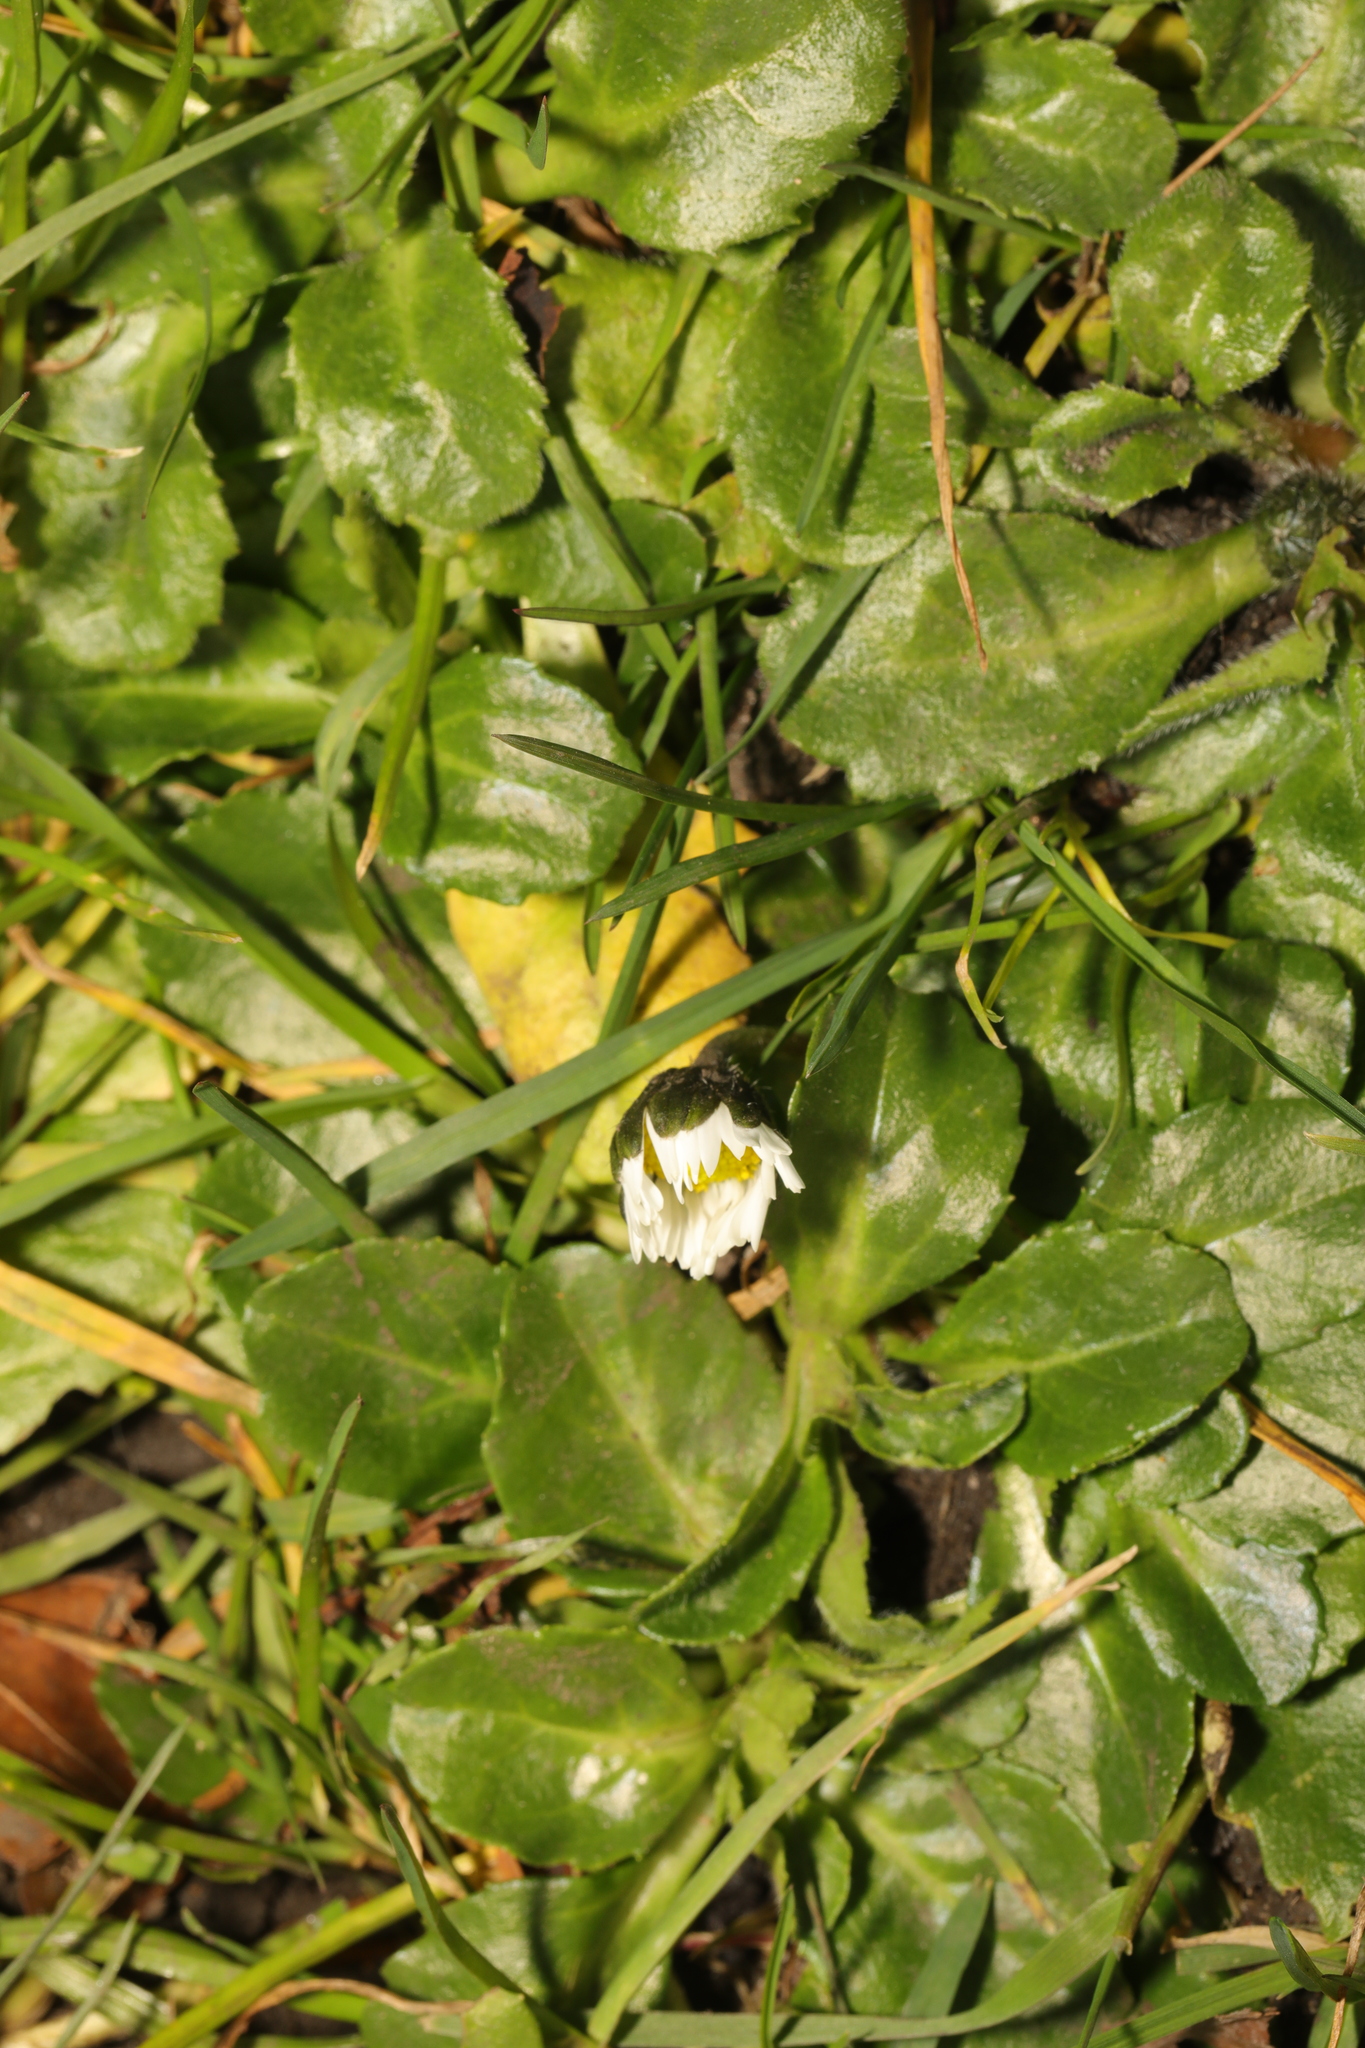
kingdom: Plantae
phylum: Tracheophyta
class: Magnoliopsida
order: Asterales
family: Asteraceae
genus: Bellis
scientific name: Bellis perennis
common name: Lawndaisy
